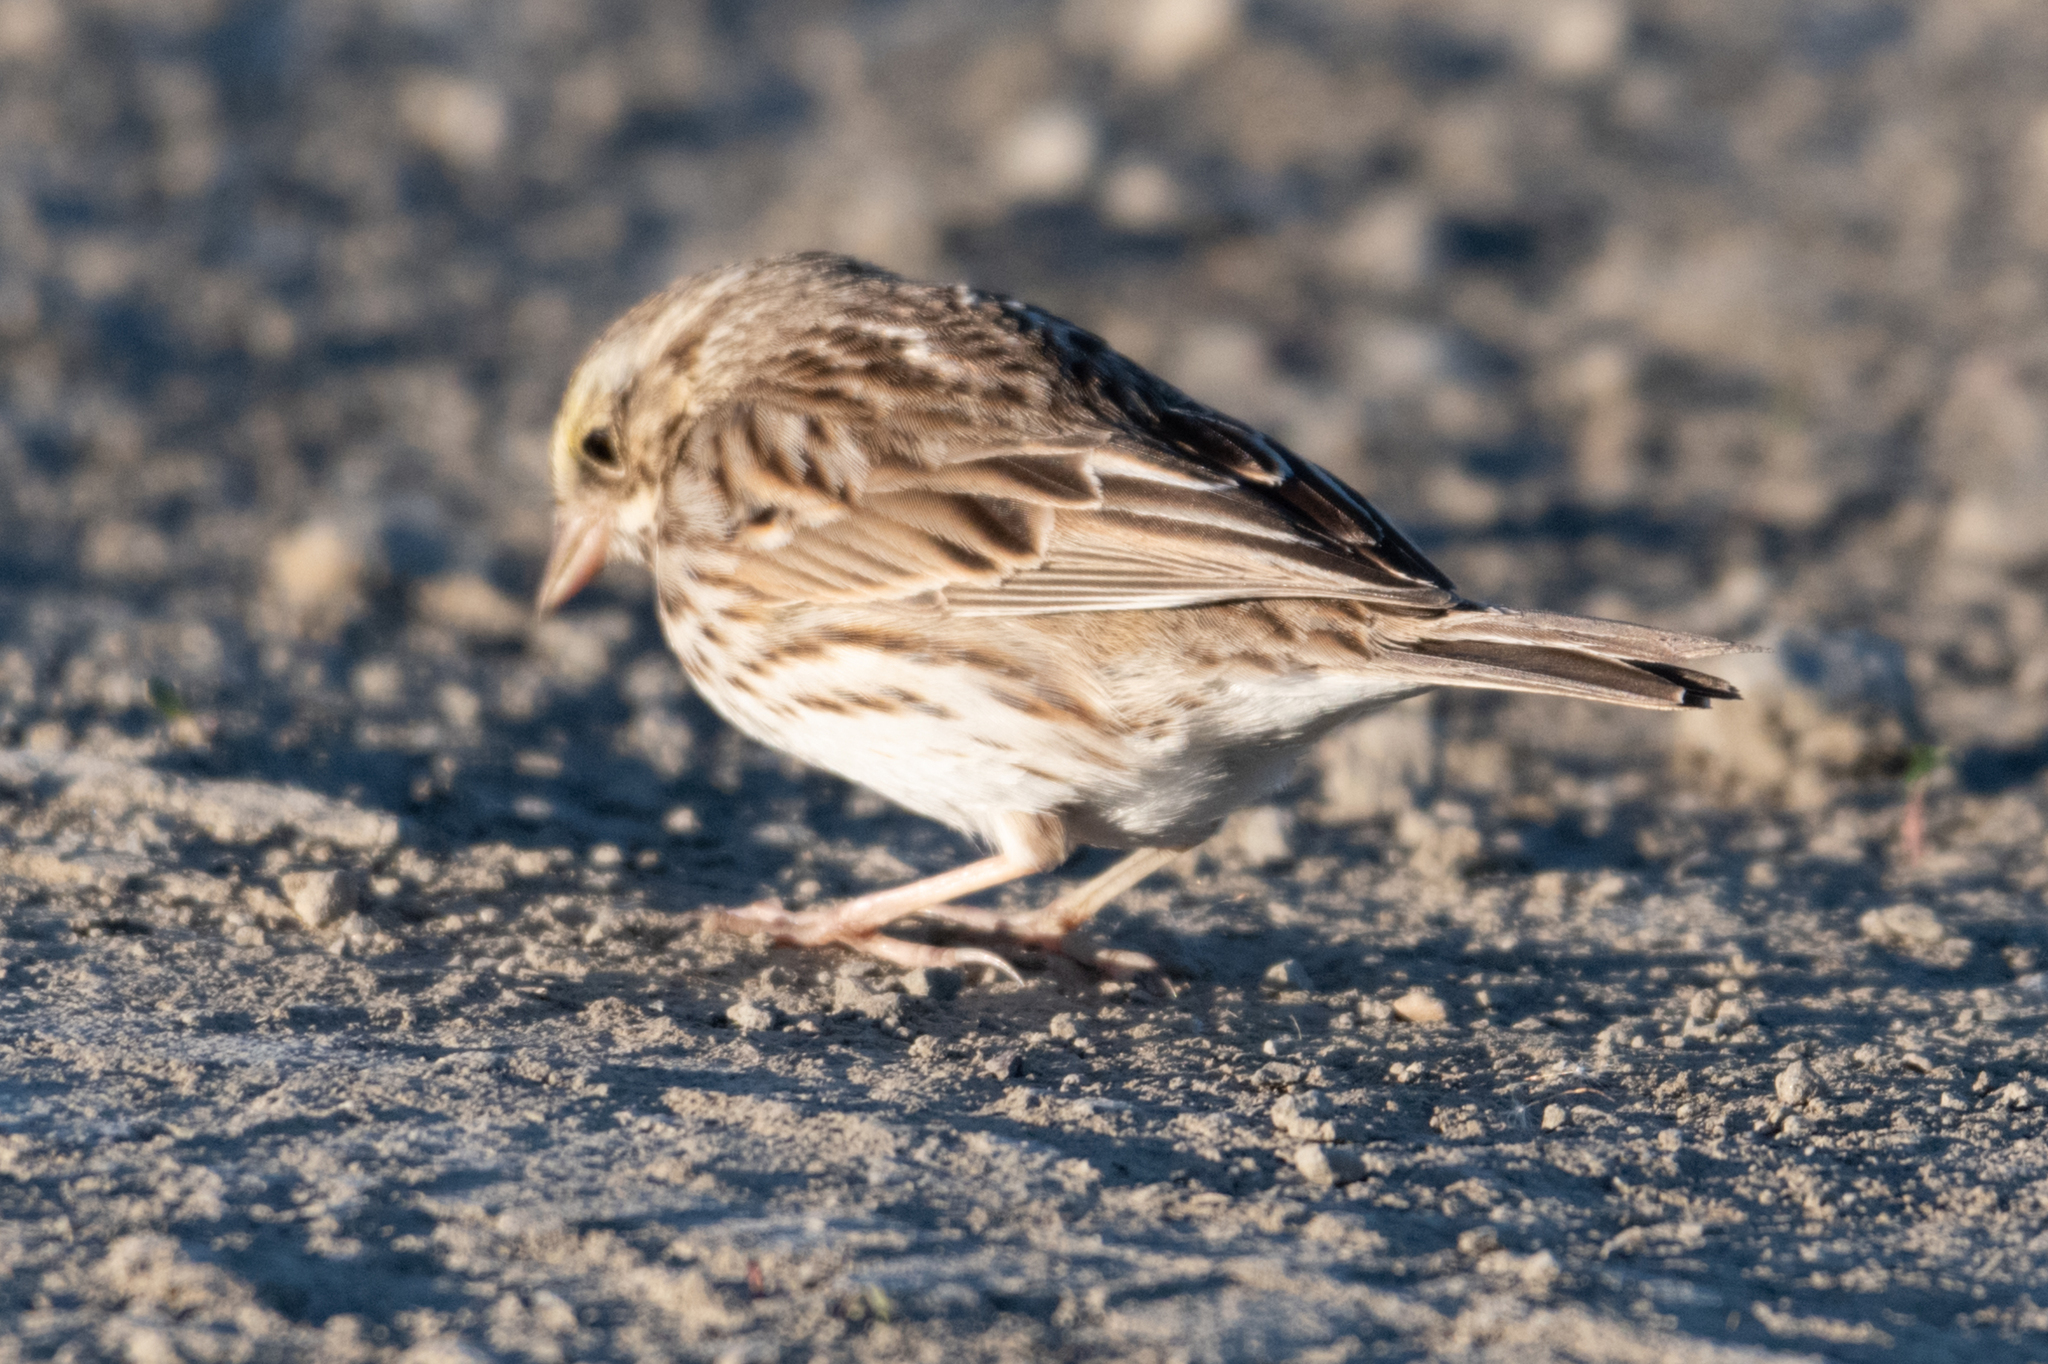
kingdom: Animalia
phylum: Chordata
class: Aves
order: Passeriformes
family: Passerellidae
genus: Passerculus
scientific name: Passerculus sandwichensis
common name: Savannah sparrow
